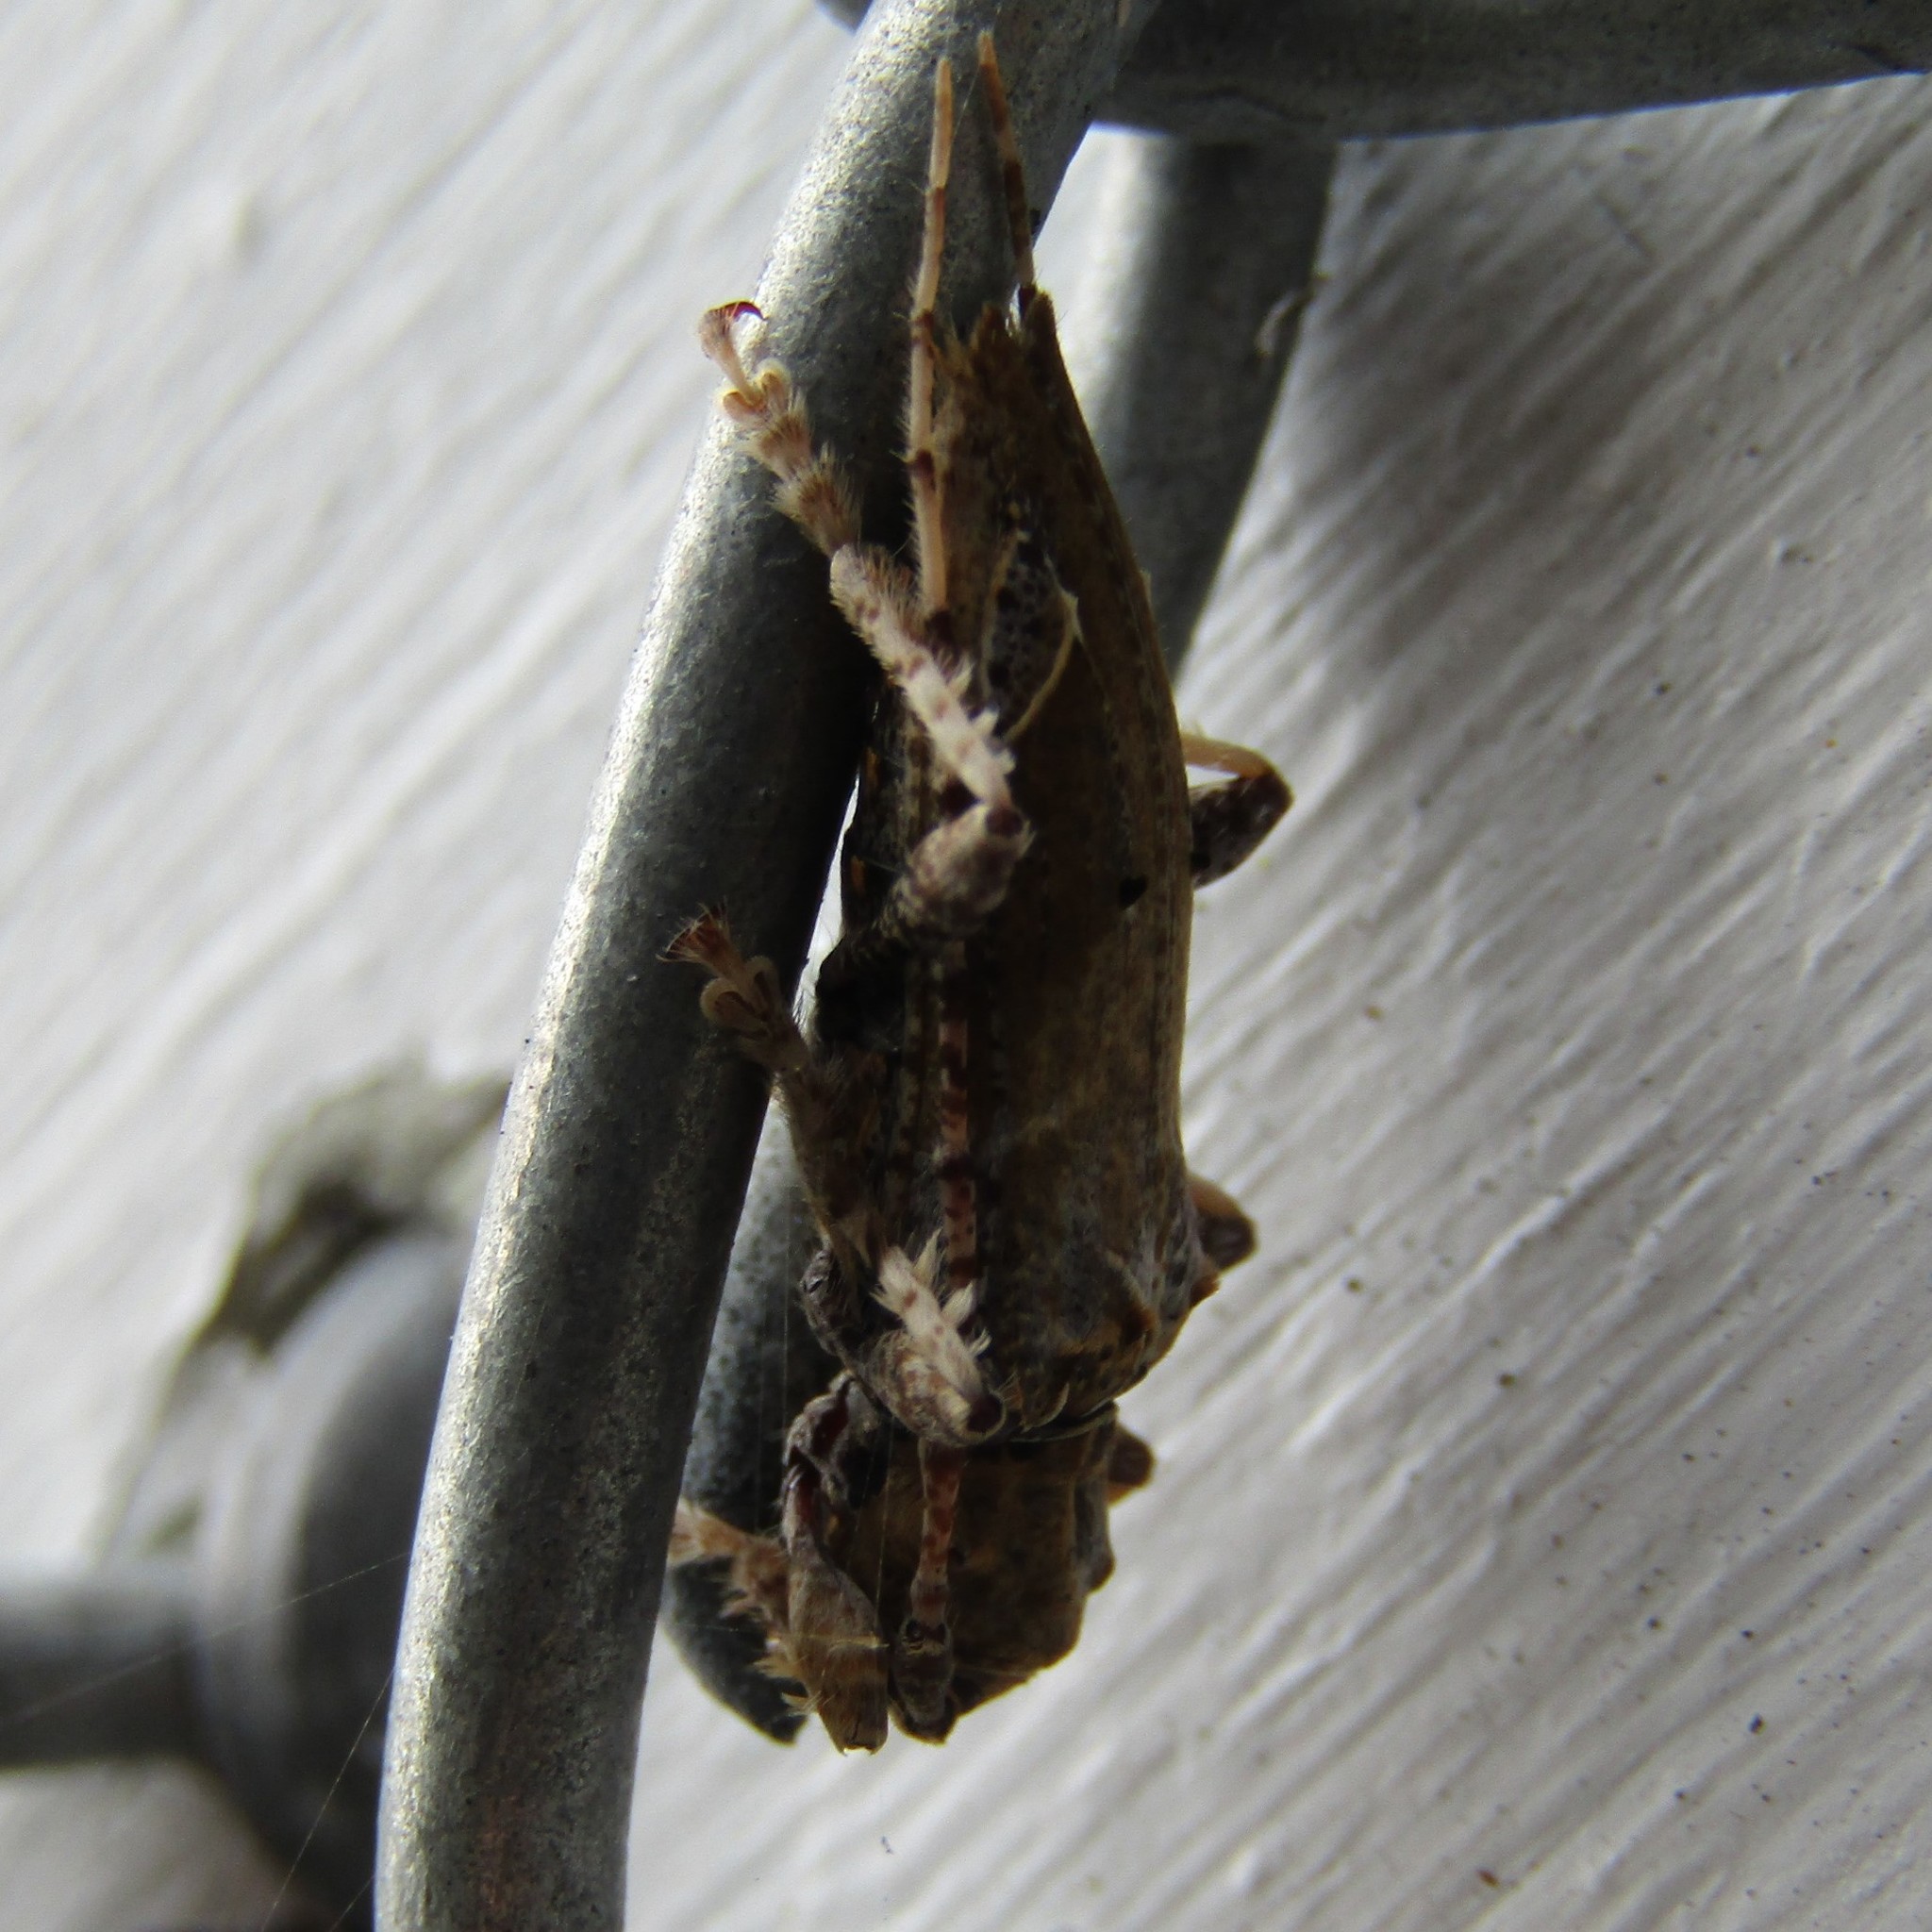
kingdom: Animalia
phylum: Arthropoda
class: Insecta
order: Coleoptera
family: Cerambycidae
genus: Tetrorea
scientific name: Tetrorea cilipes
